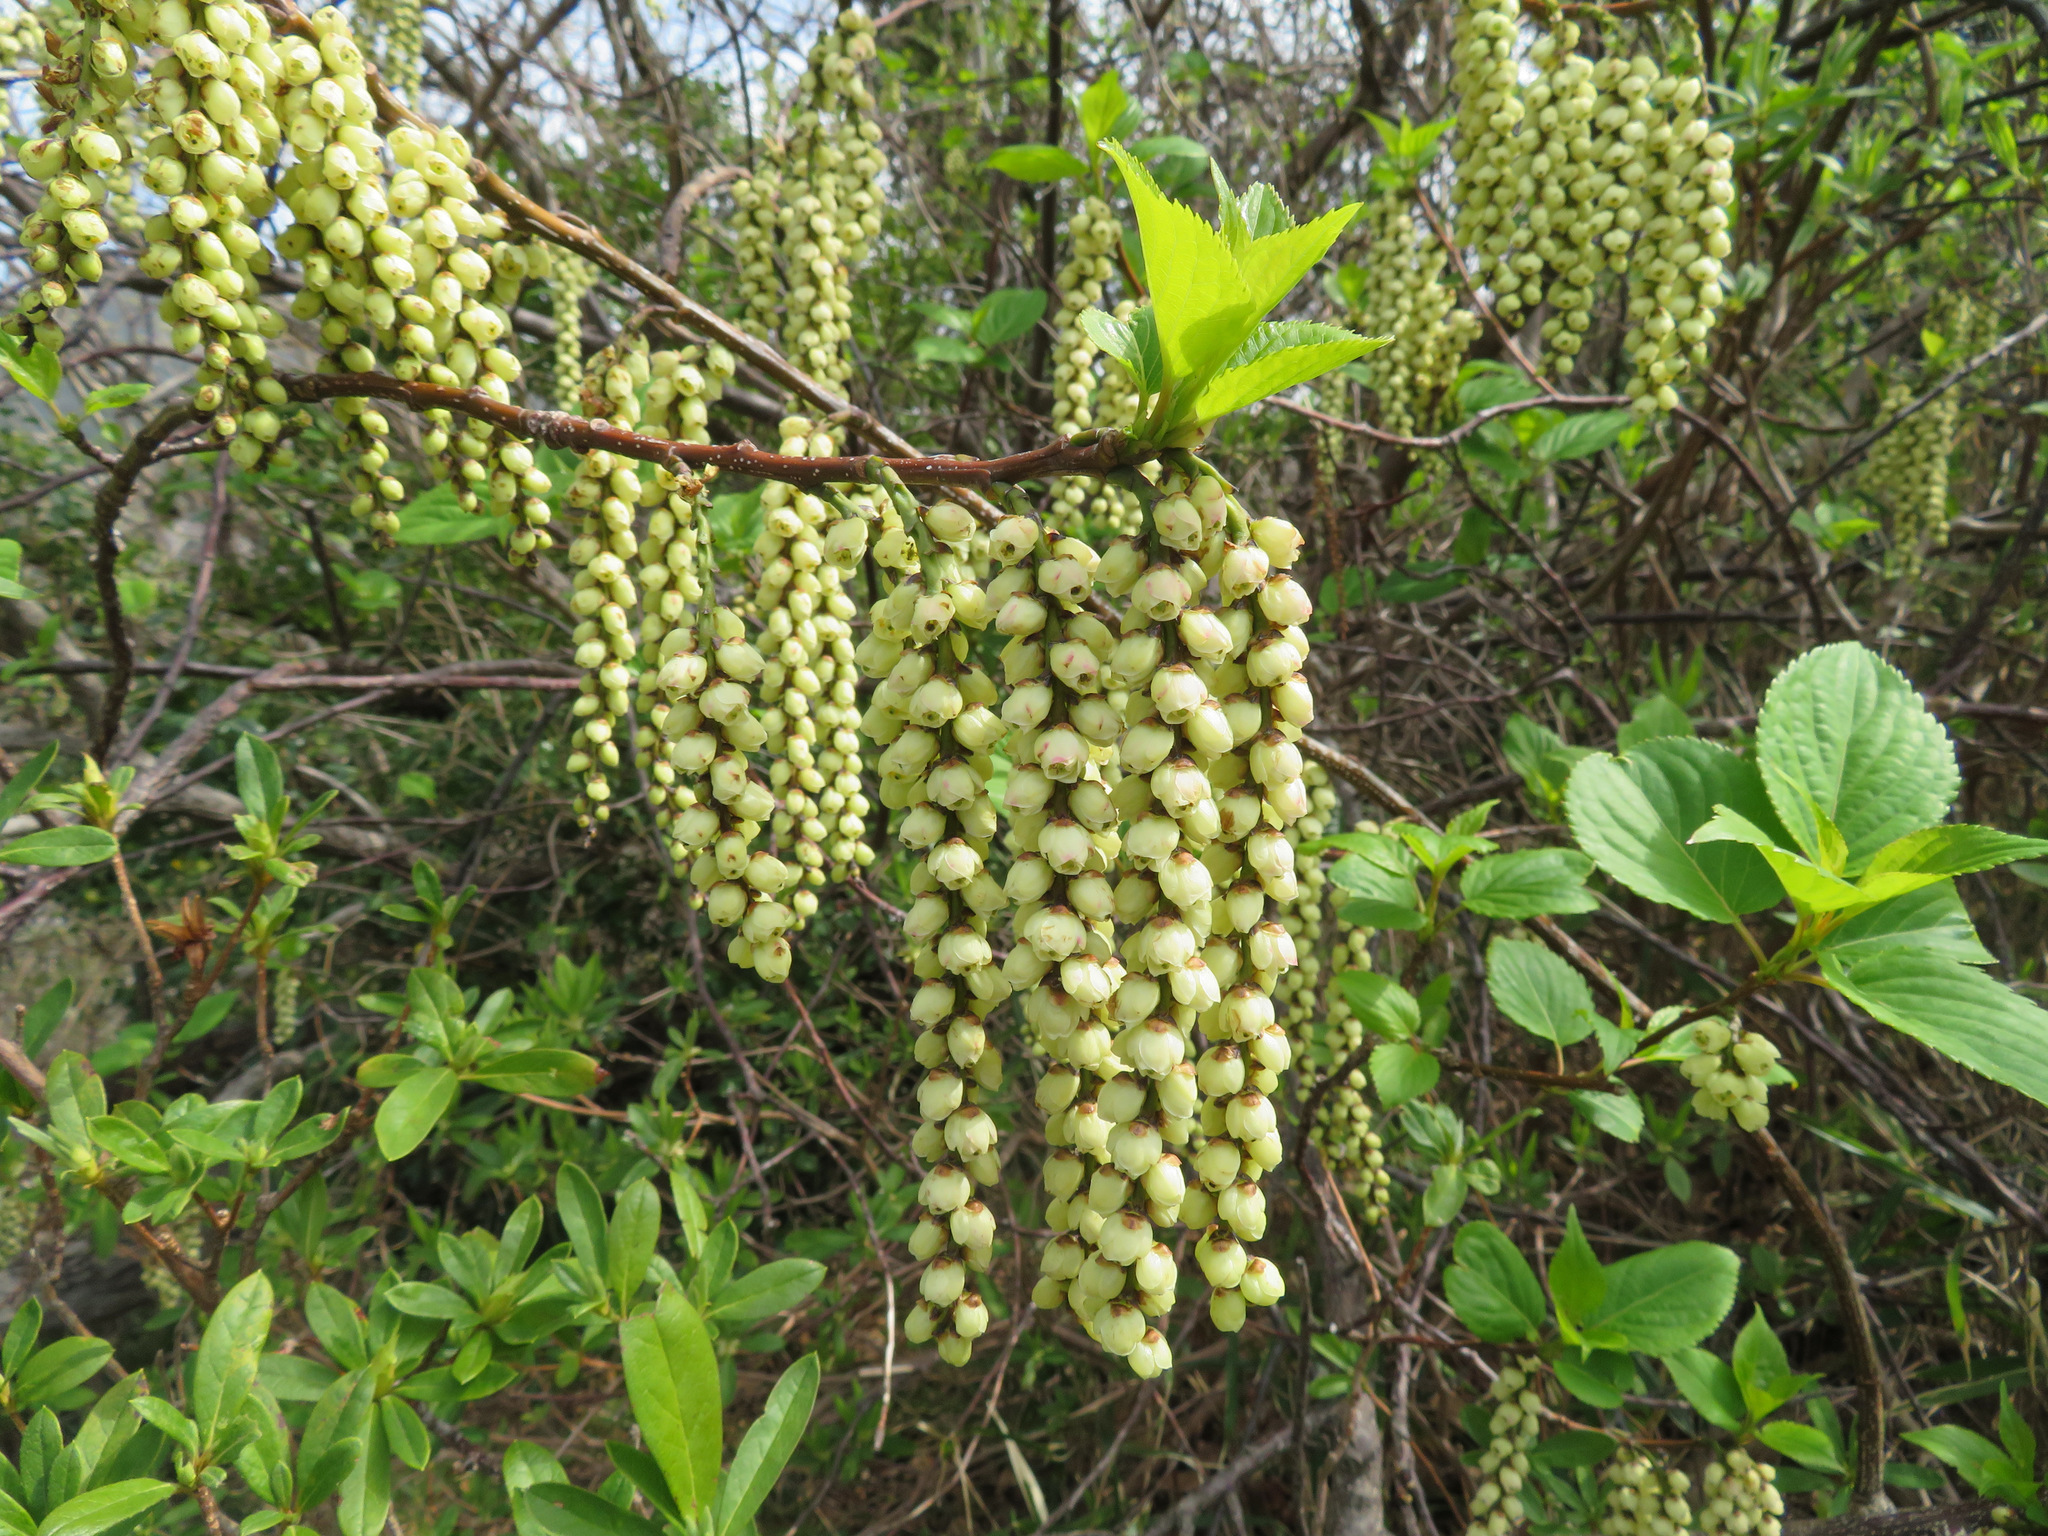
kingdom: Plantae
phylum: Tracheophyta
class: Magnoliopsida
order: Crossosomatales
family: Stachyuraceae
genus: Stachyurus
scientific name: Stachyurus praecox
